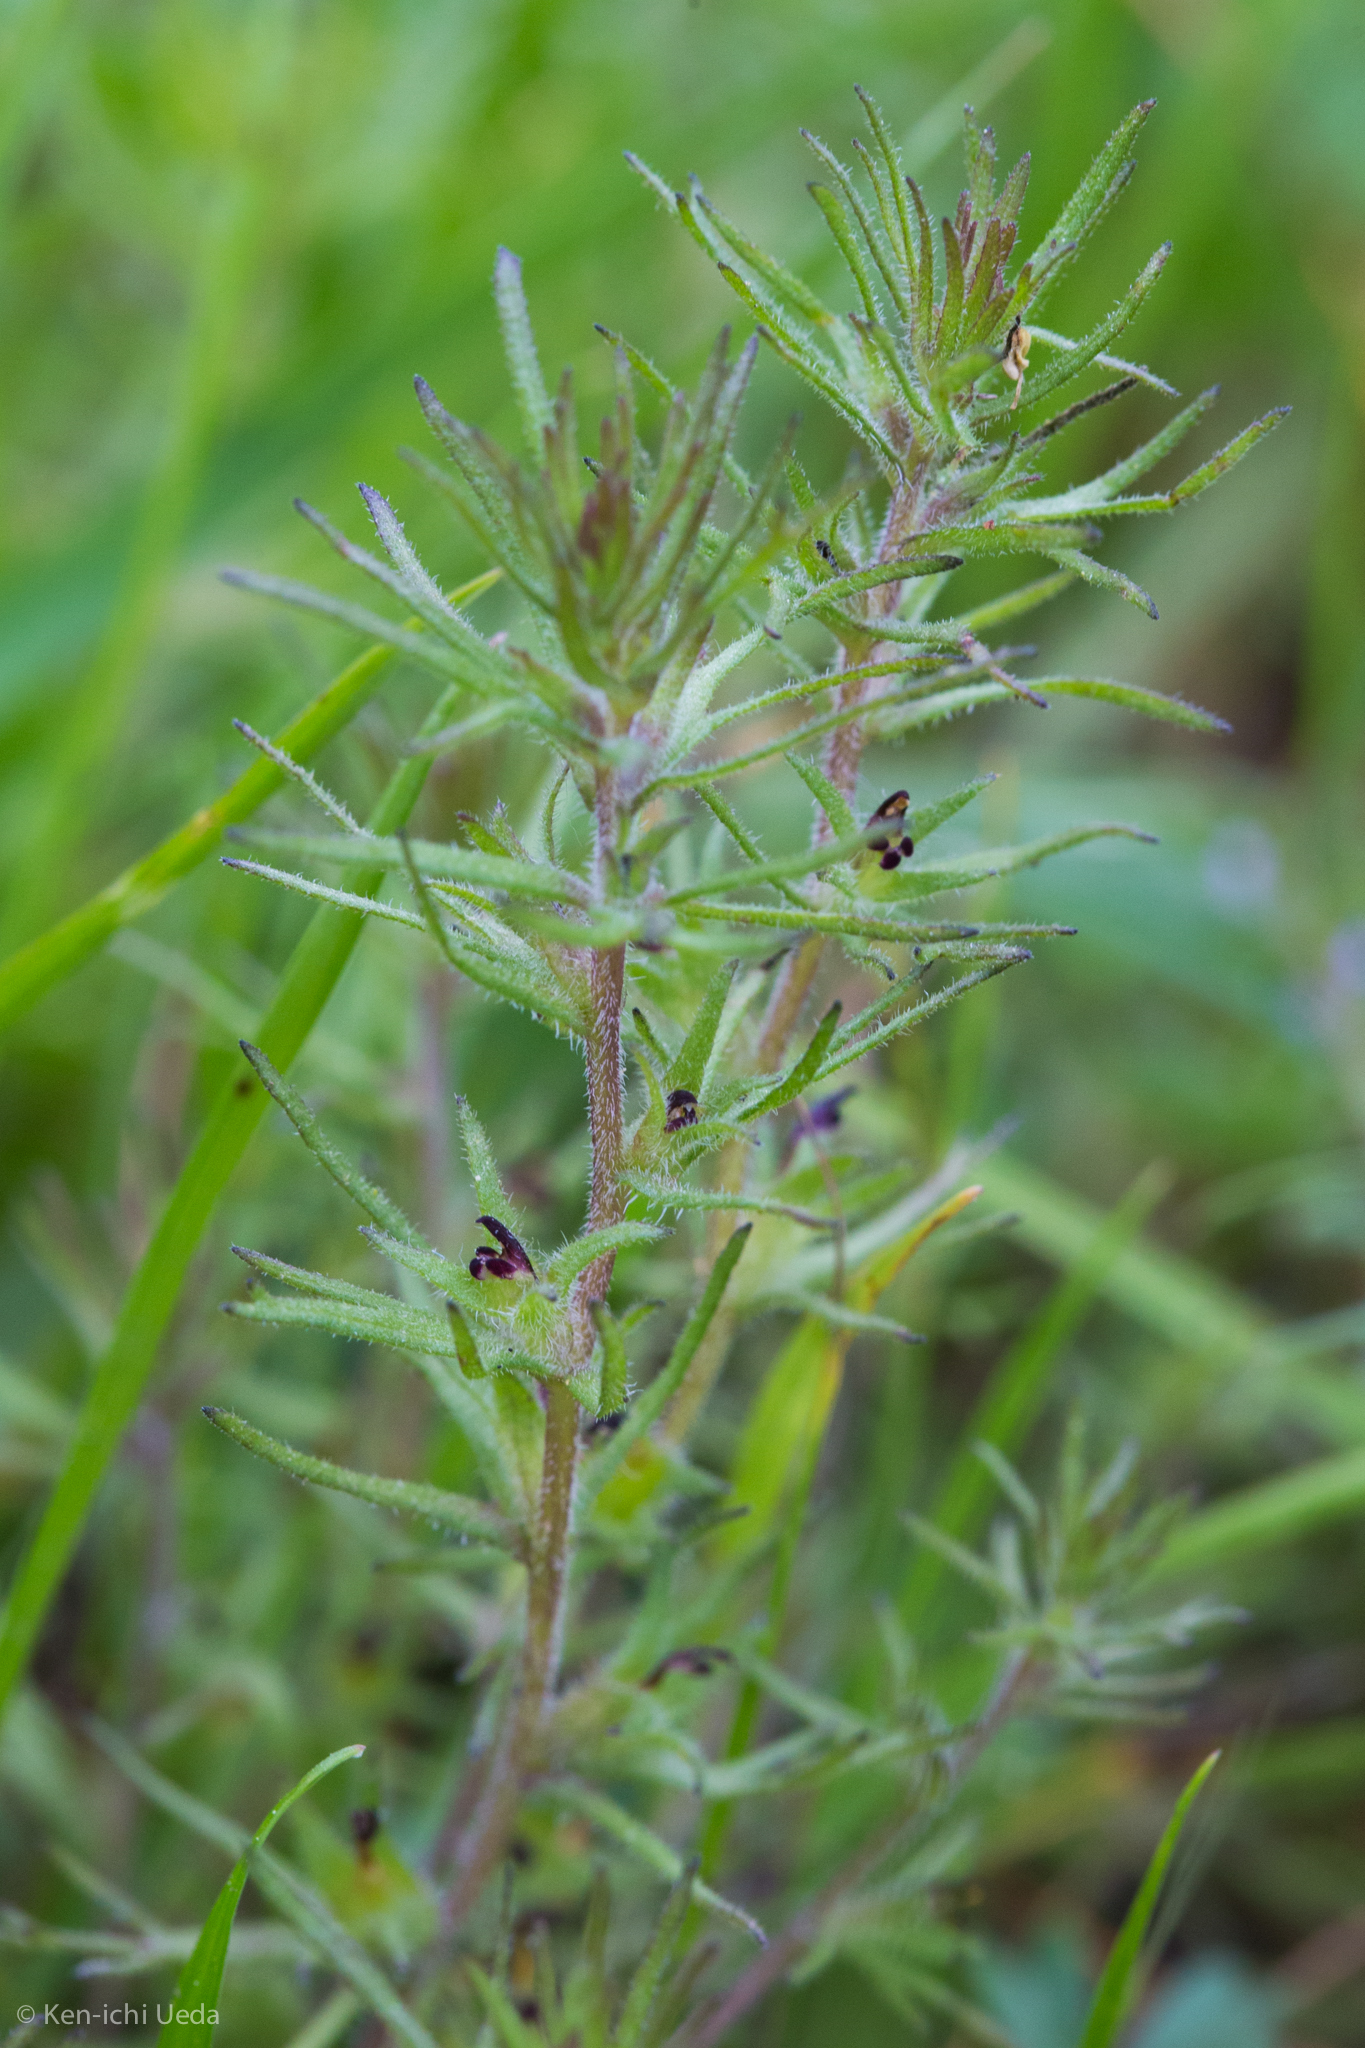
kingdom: Plantae
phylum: Tracheophyta
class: Magnoliopsida
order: Lamiales
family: Orobanchaceae
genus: Triphysaria
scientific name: Triphysaria pusilla
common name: Dwarf false owl-clover
